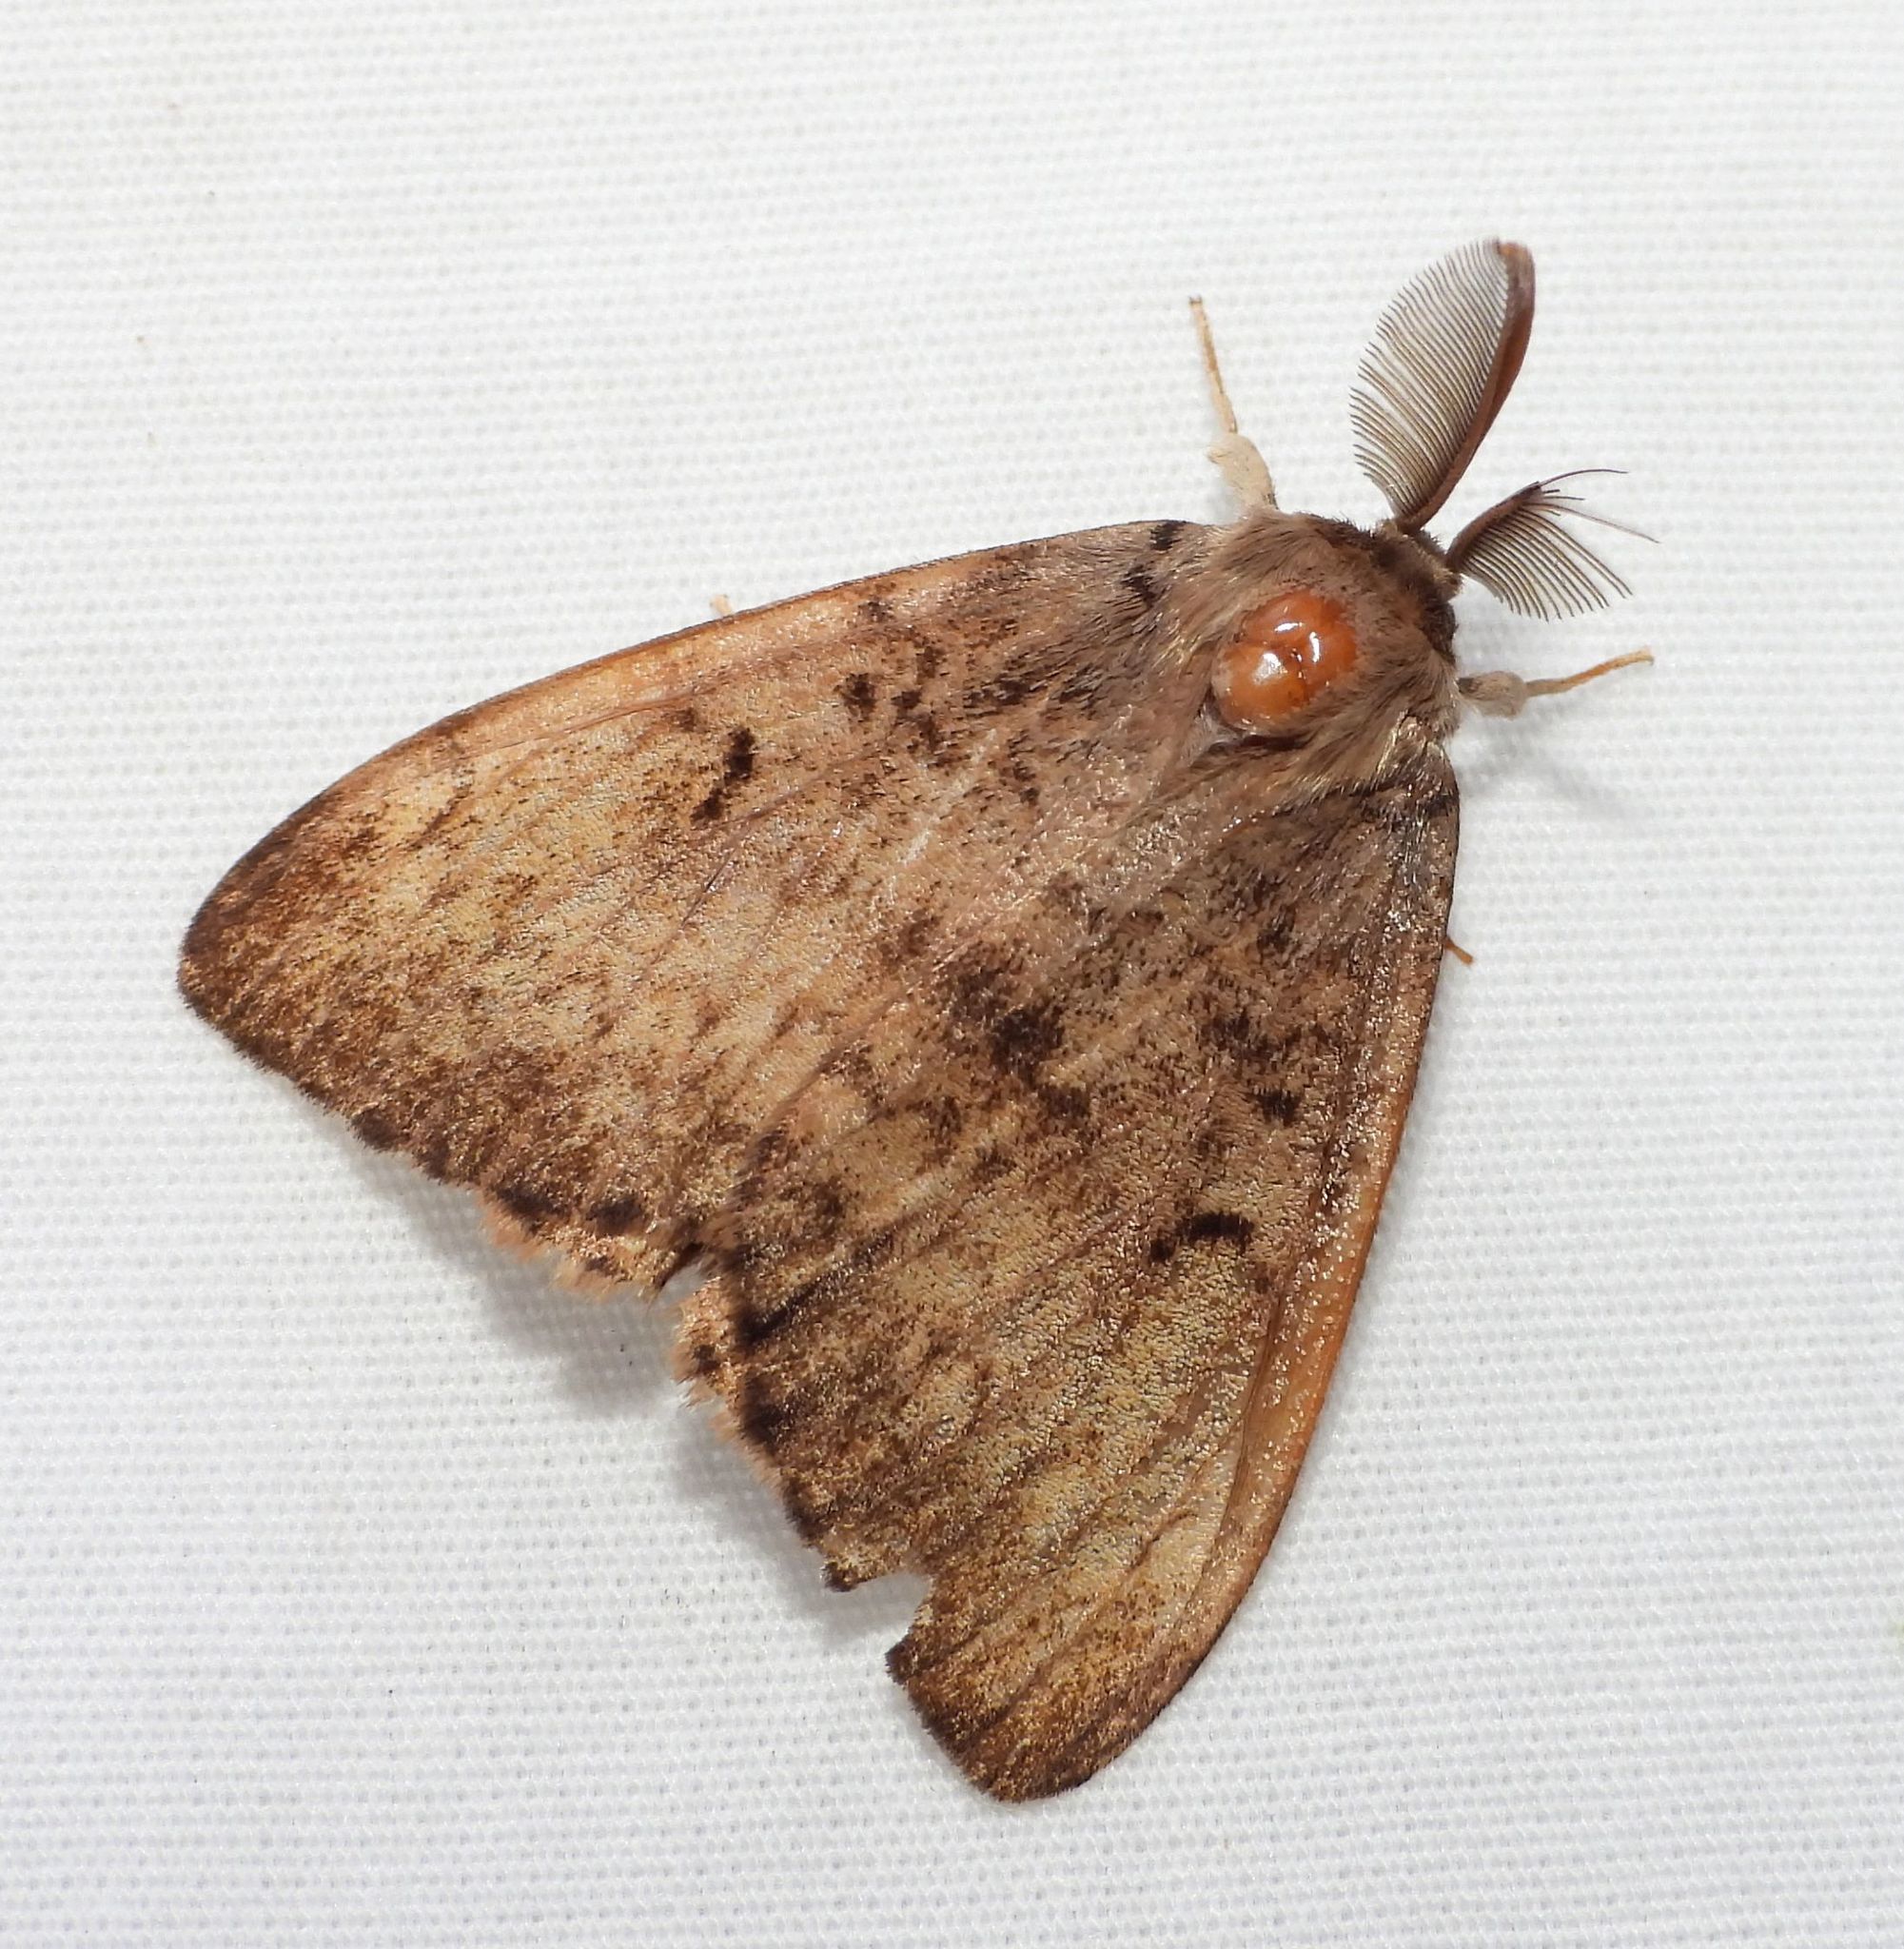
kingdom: Animalia
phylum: Arthropoda
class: Insecta
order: Lepidoptera
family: Erebidae
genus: Lymantria
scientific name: Lymantria dispar
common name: Gypsy moth
